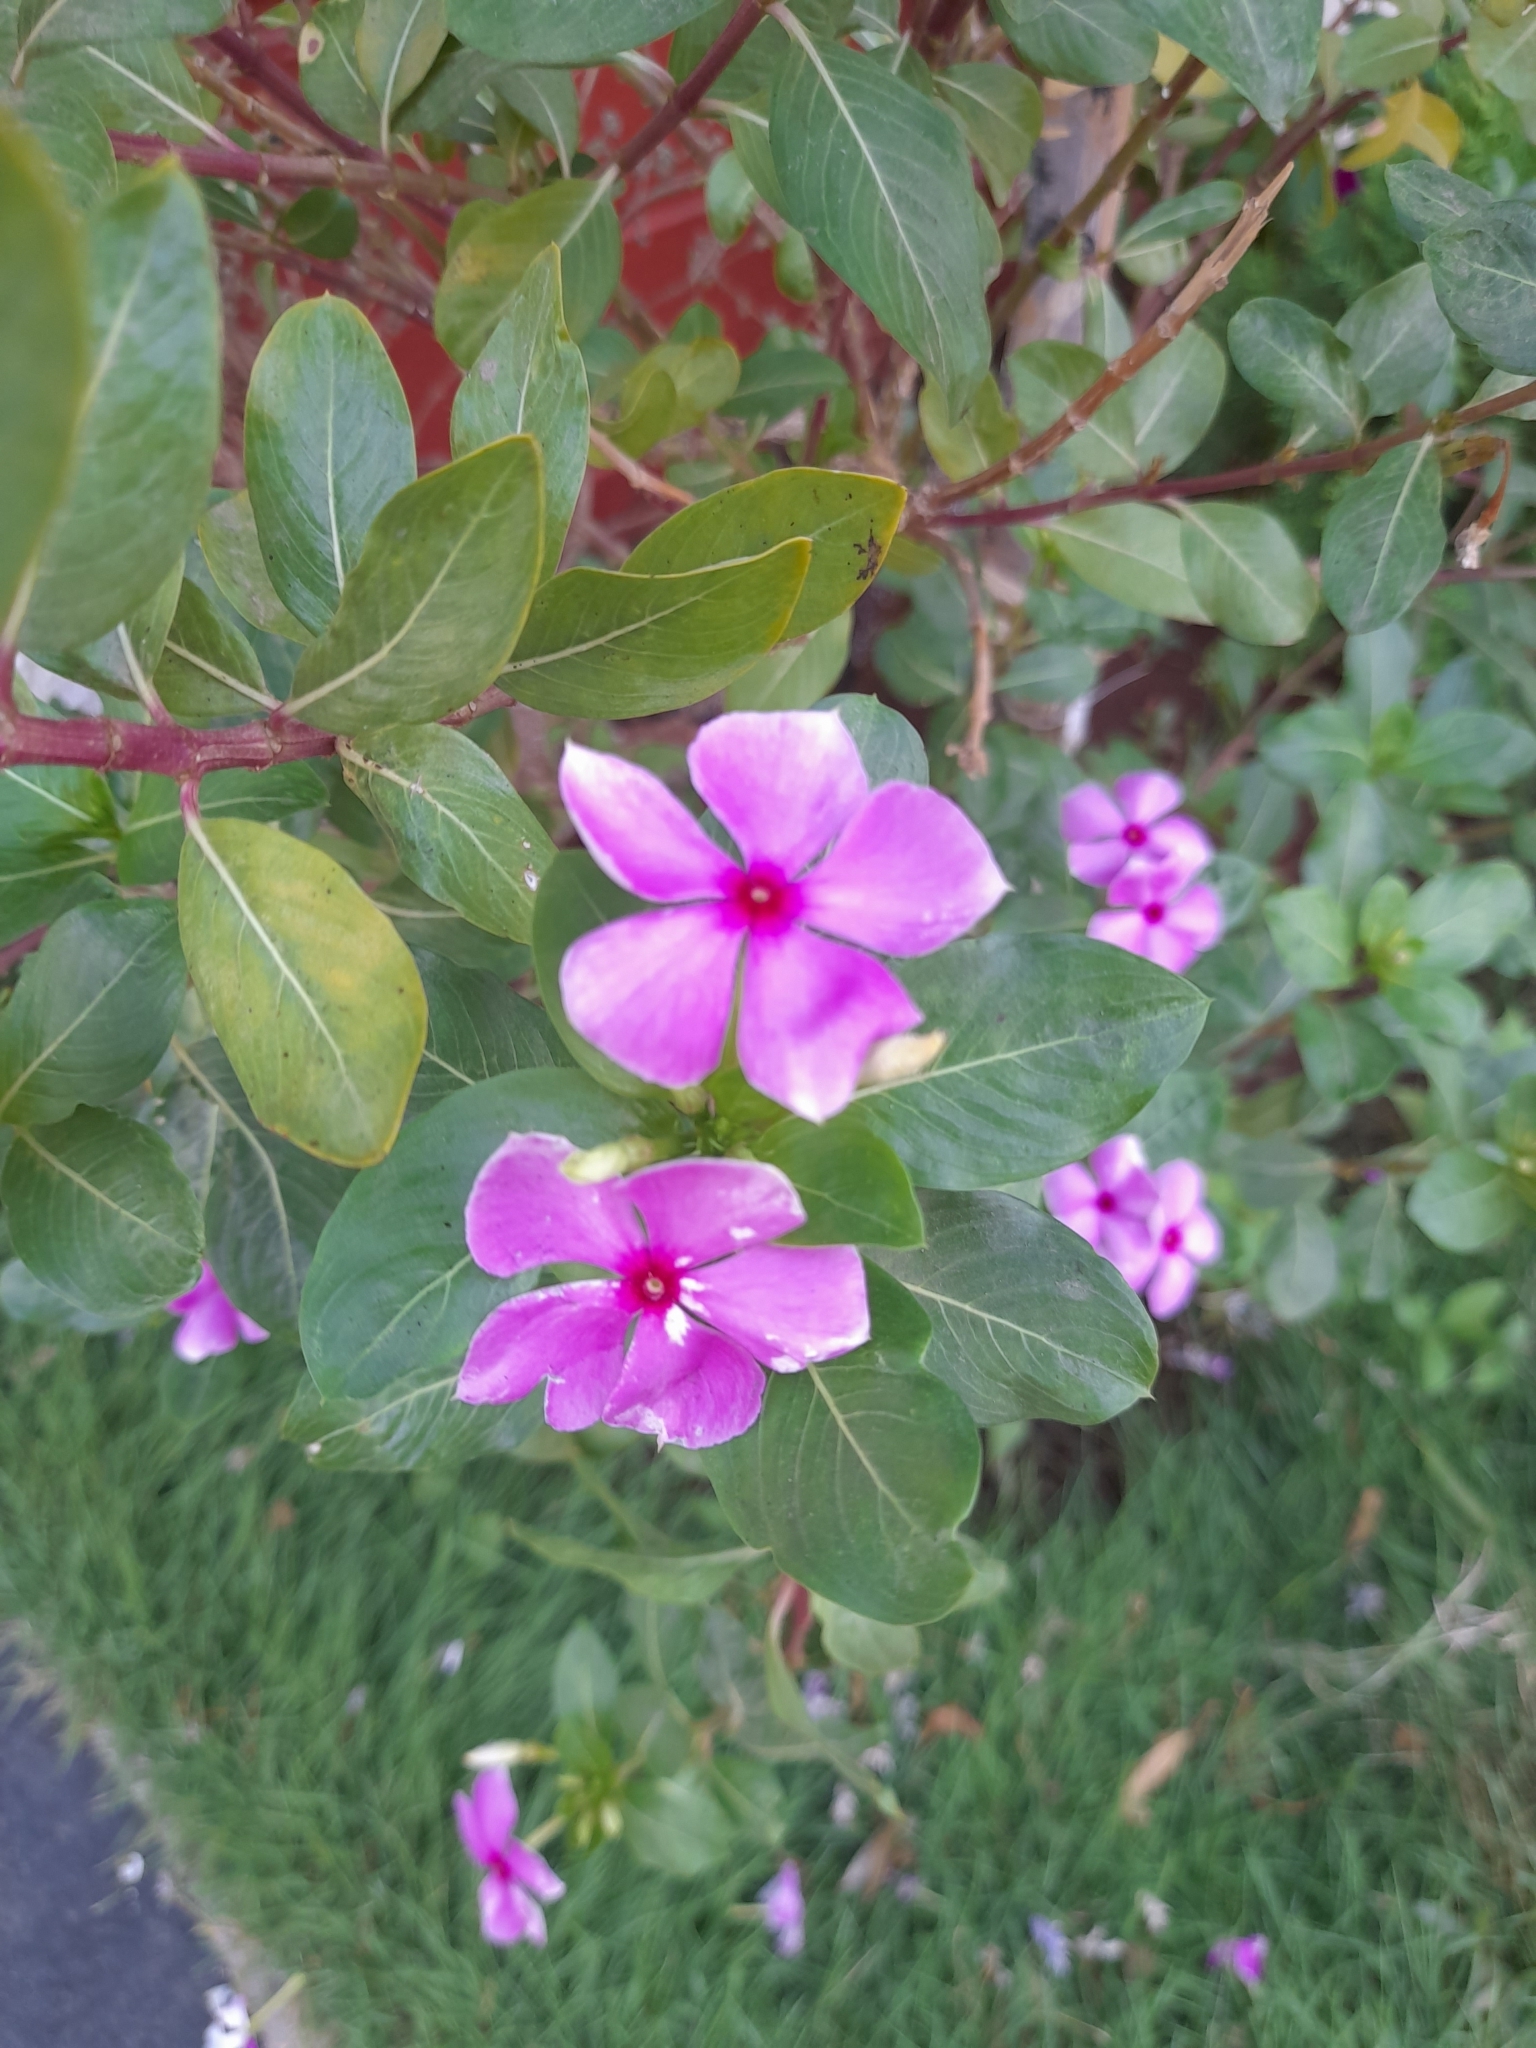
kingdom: Plantae
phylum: Tracheophyta
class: Magnoliopsida
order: Gentianales
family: Apocynaceae
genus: Catharanthus
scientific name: Catharanthus roseus
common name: Madagascar periwinkle
